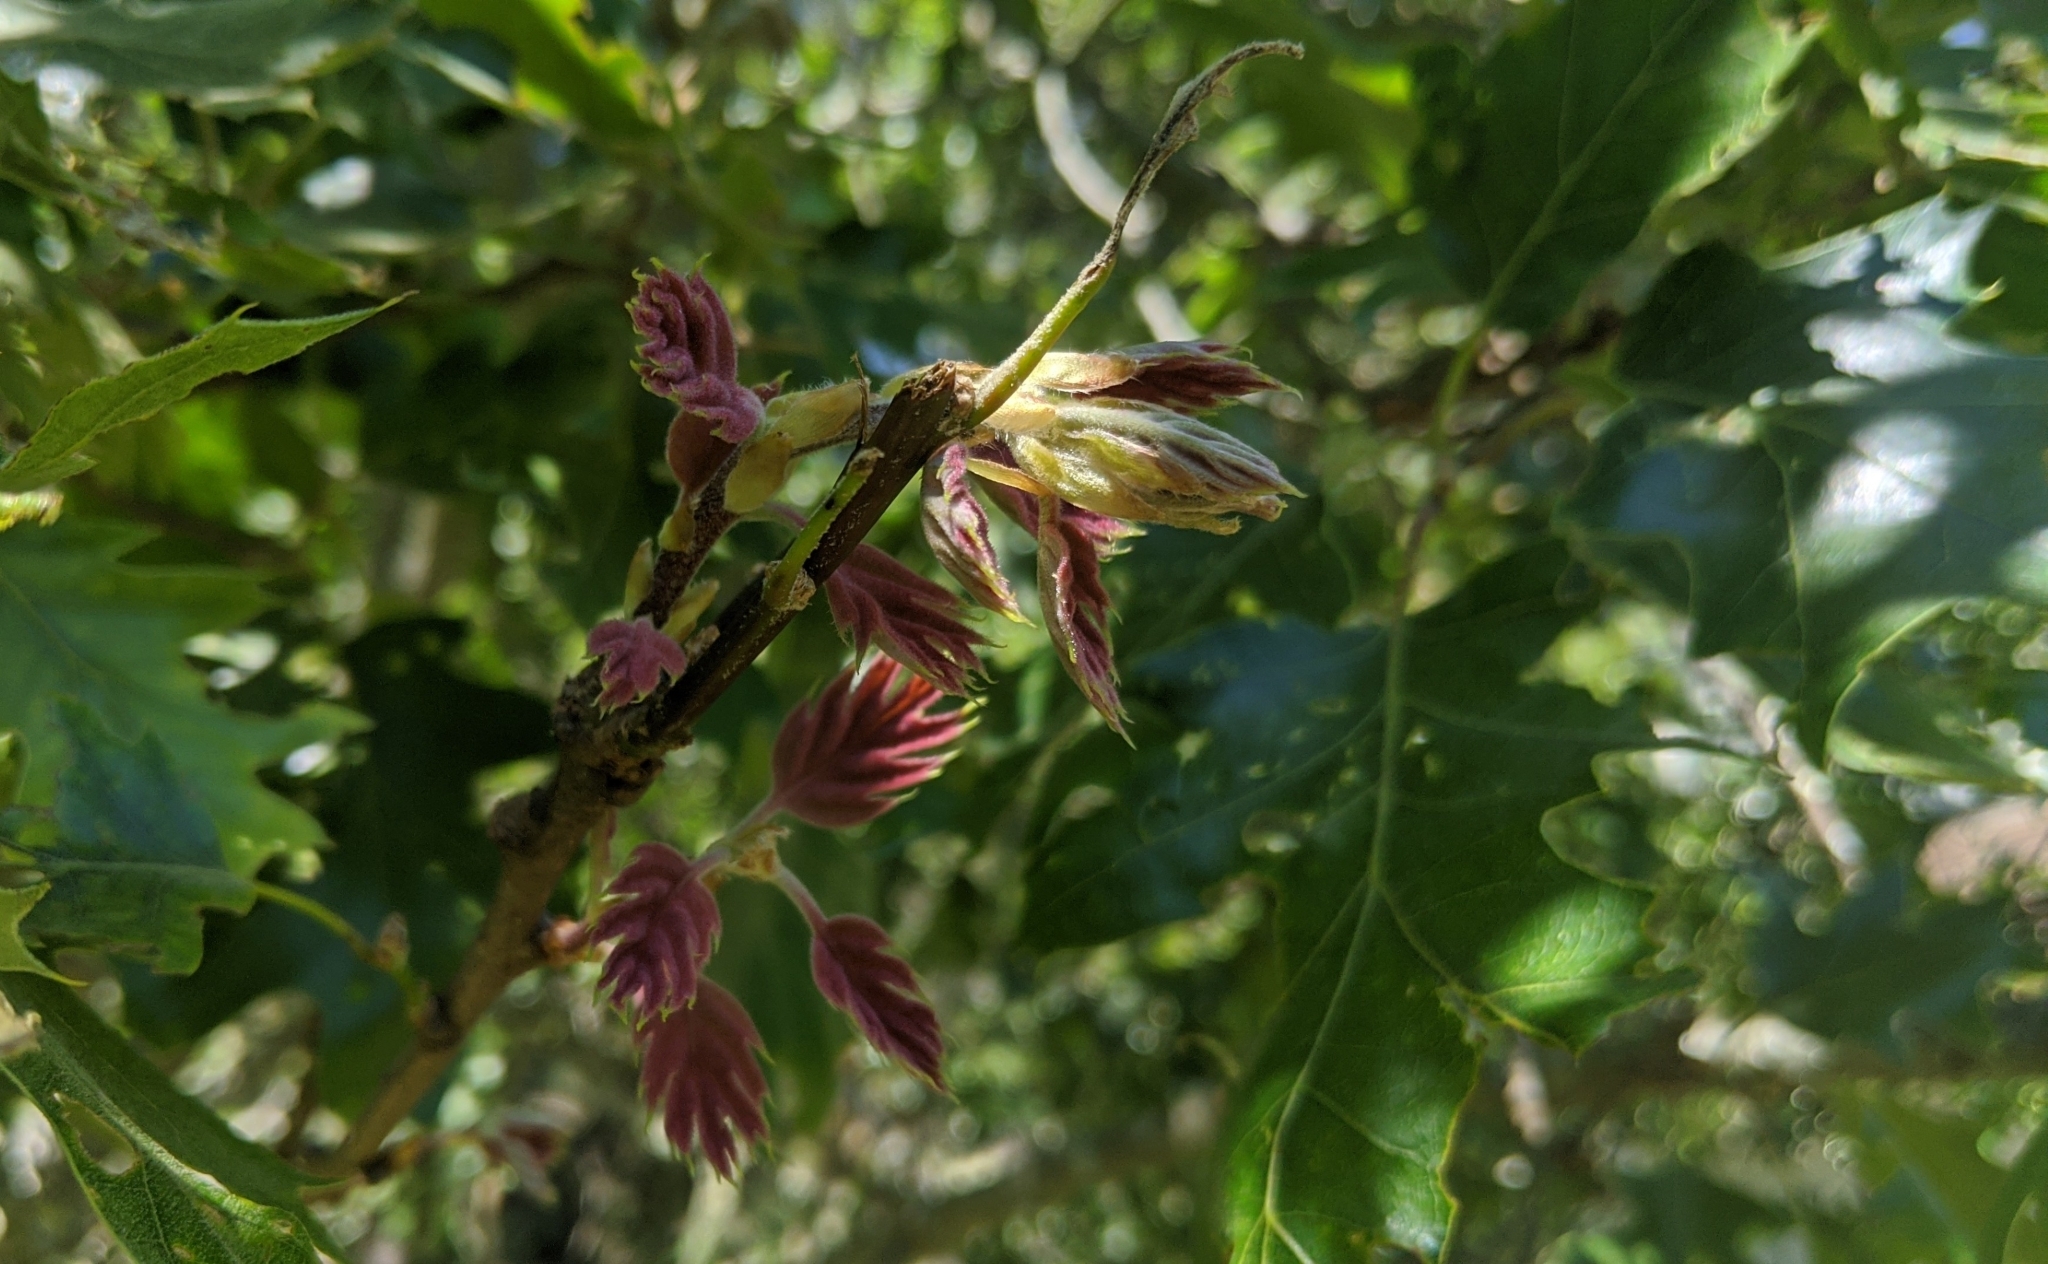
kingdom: Plantae
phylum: Tracheophyta
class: Magnoliopsida
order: Fagales
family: Fagaceae
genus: Quercus
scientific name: Quercus kelloggii
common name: California black oak
